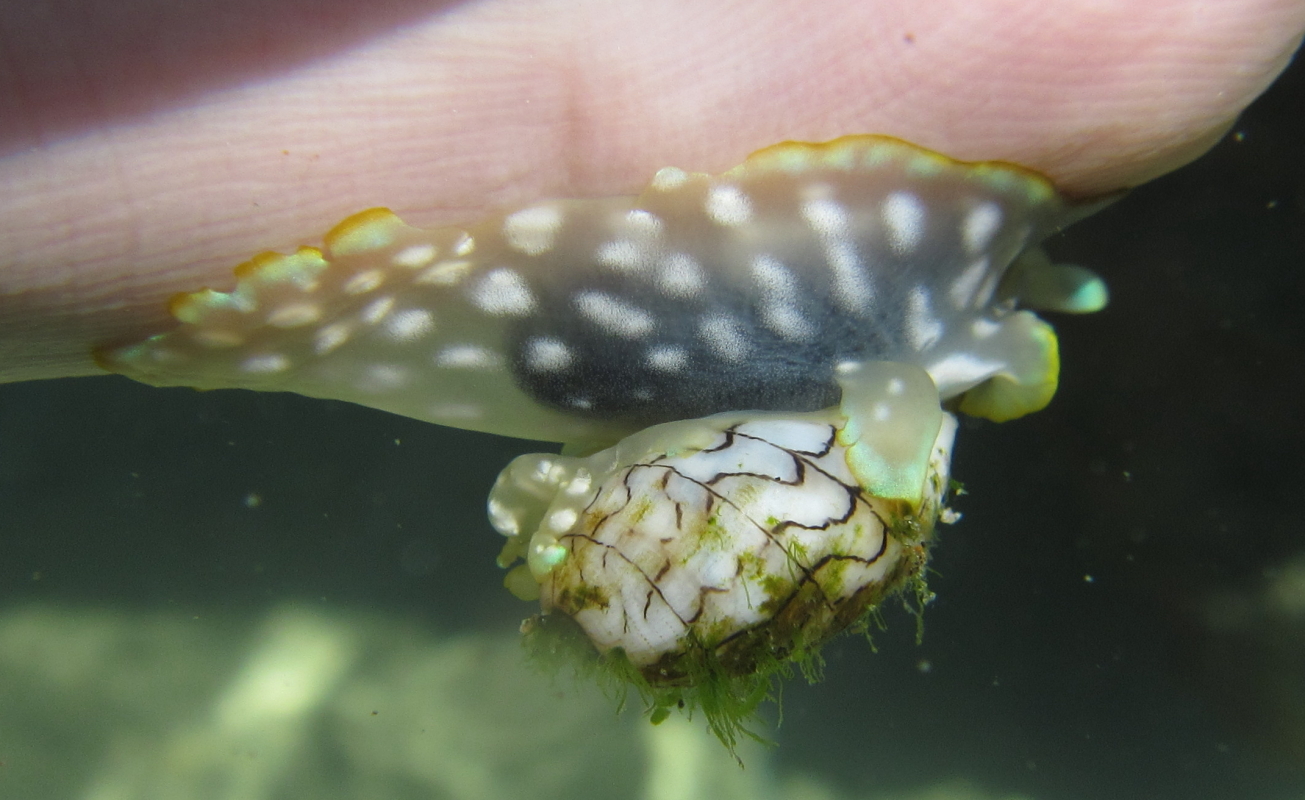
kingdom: Animalia
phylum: Mollusca
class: Gastropoda
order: Cephalaspidea
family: Aplustridae
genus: Micromelo
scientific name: Micromelo scriptus
